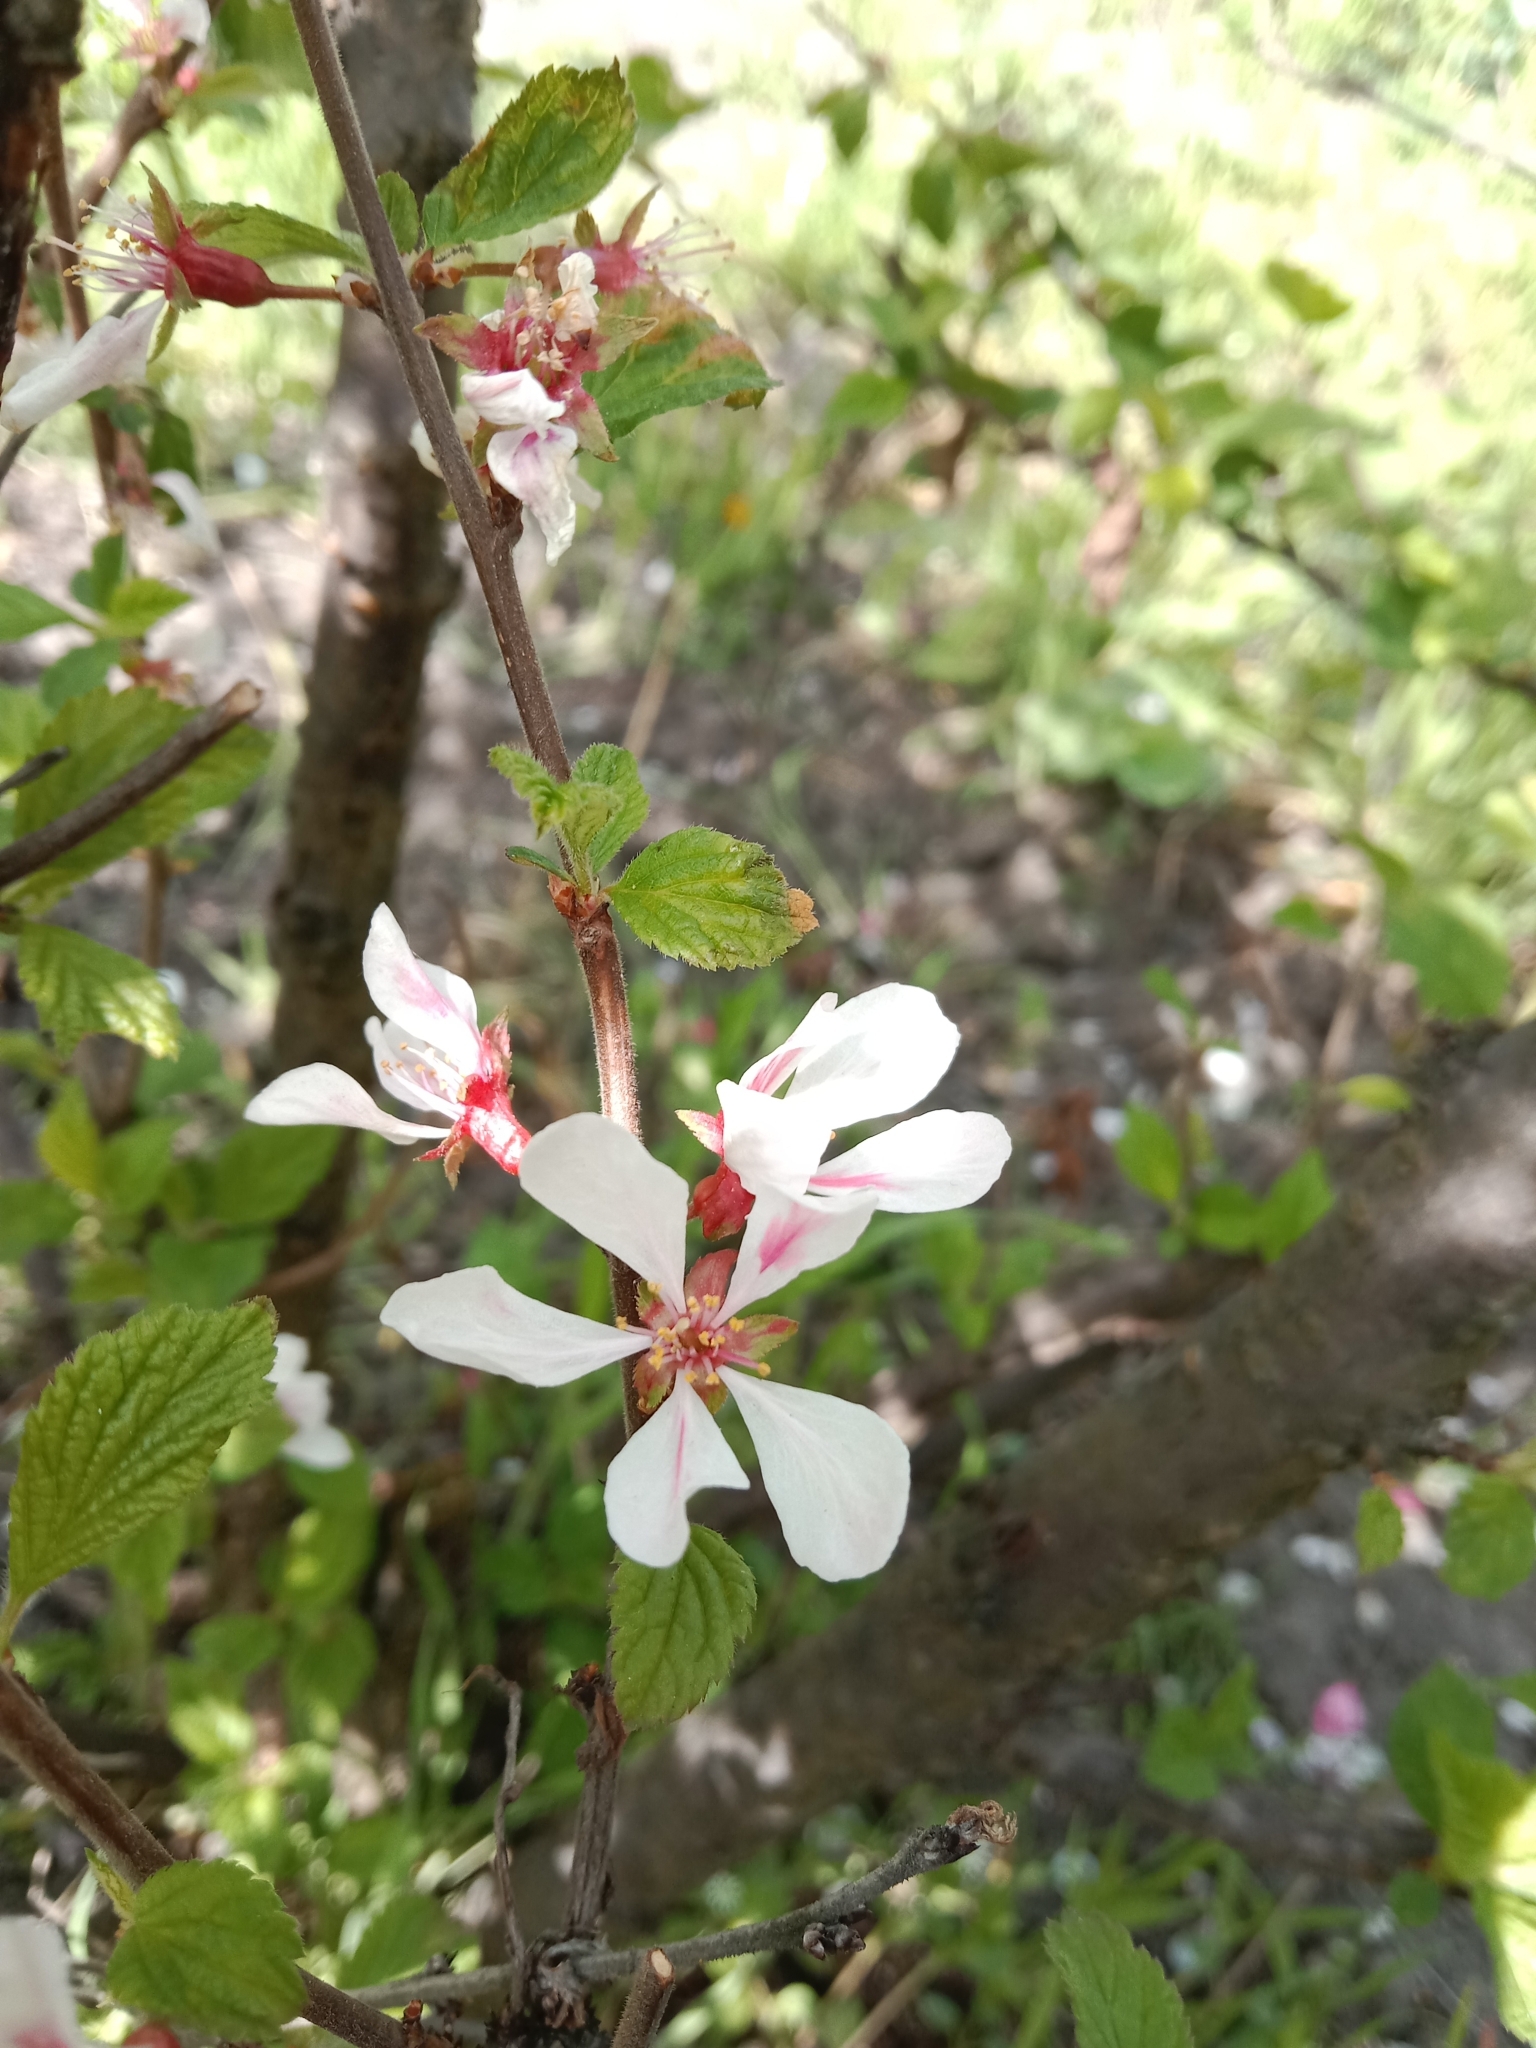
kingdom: Plantae
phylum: Tracheophyta
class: Magnoliopsida
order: Rosales
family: Rosaceae
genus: Prunus
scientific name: Prunus tomentosa
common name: Nanking cherry
